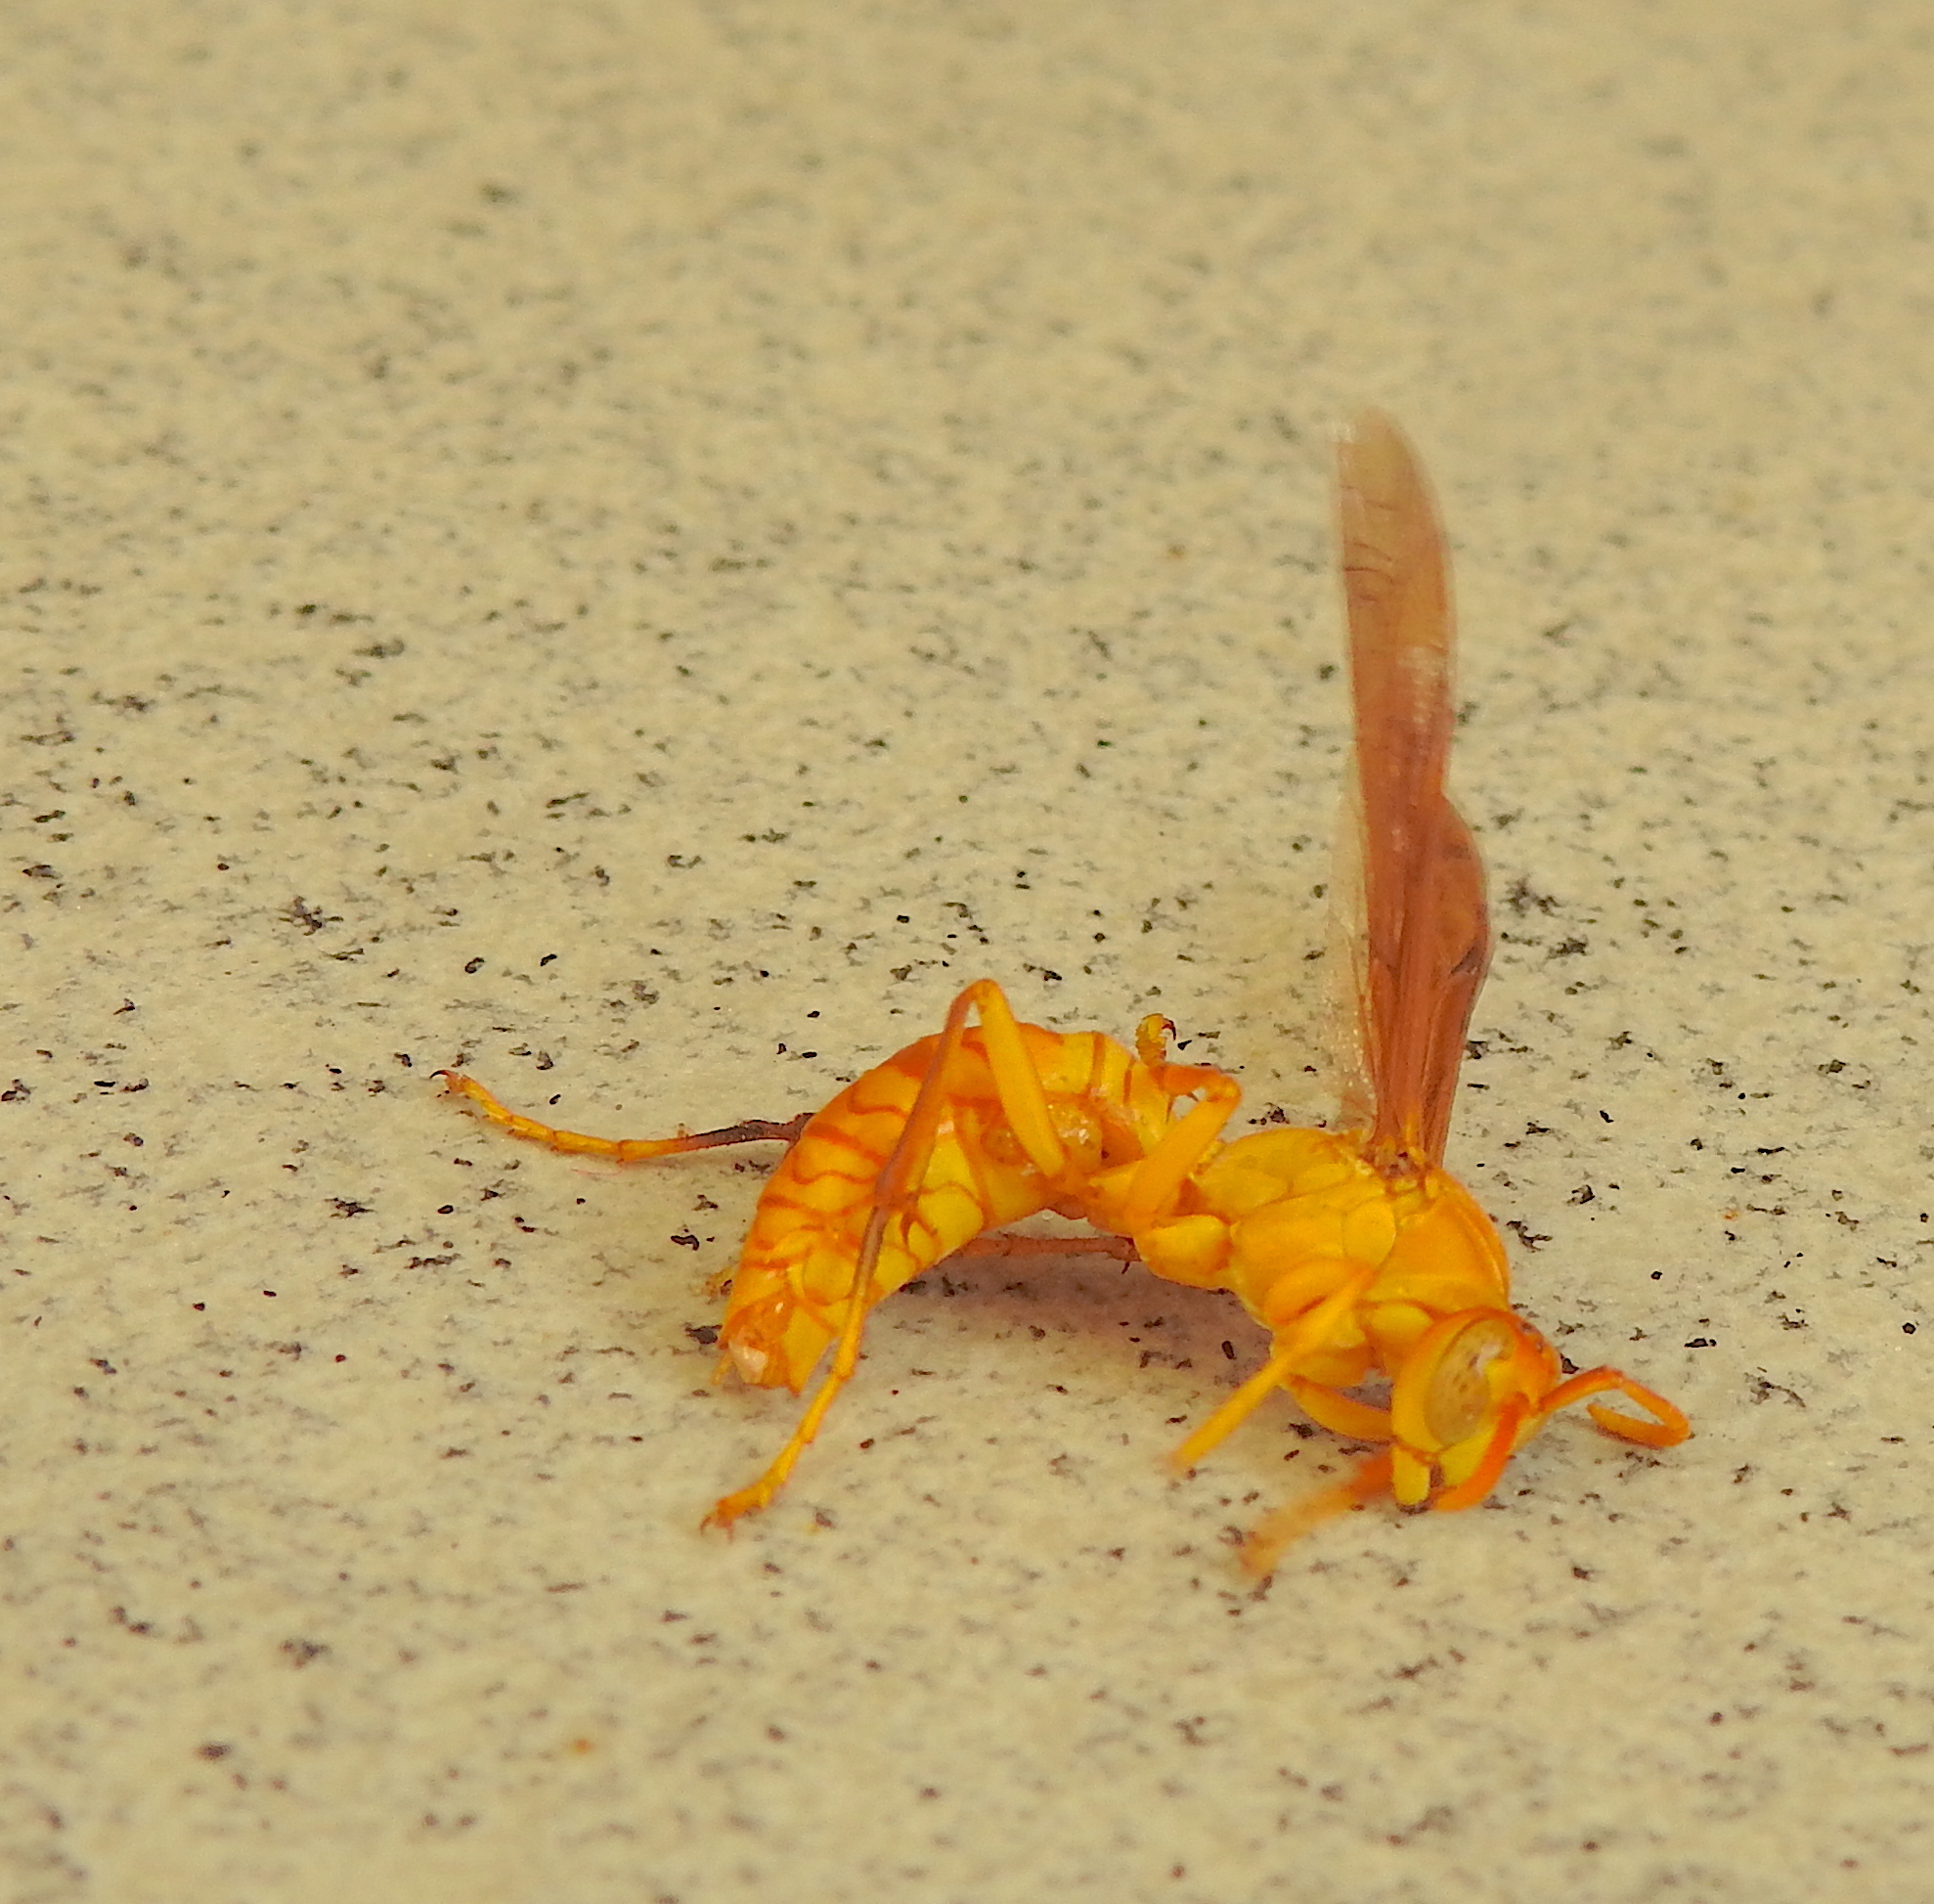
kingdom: Animalia
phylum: Arthropoda
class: Insecta
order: Hymenoptera
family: Eumenidae
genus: Polistes
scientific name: Polistes wattii
